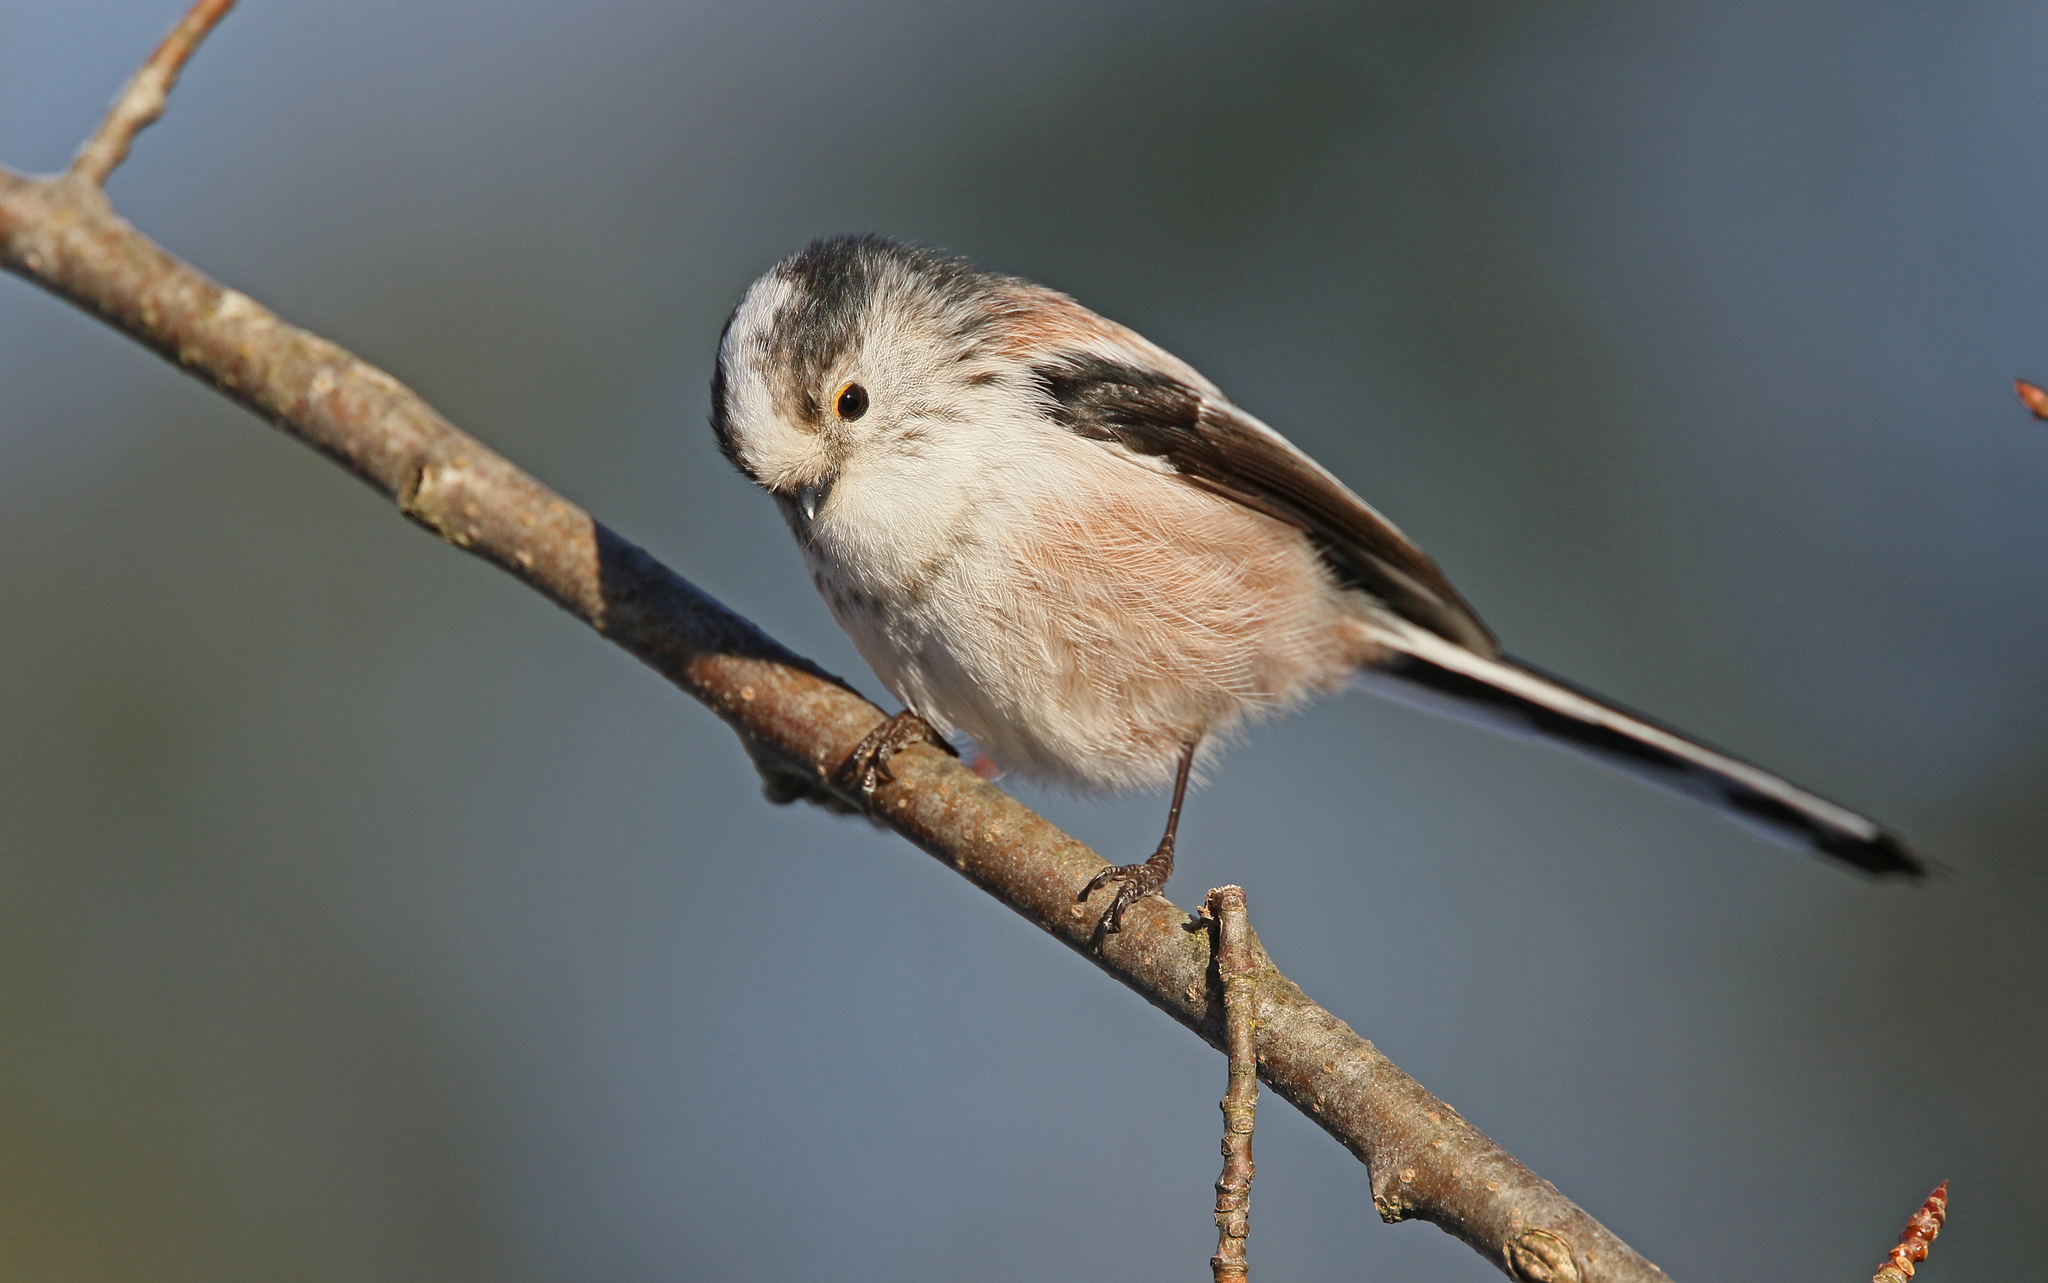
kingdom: Animalia
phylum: Chordata
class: Aves
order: Passeriformes
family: Aegithalidae
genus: Aegithalos
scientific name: Aegithalos caudatus
